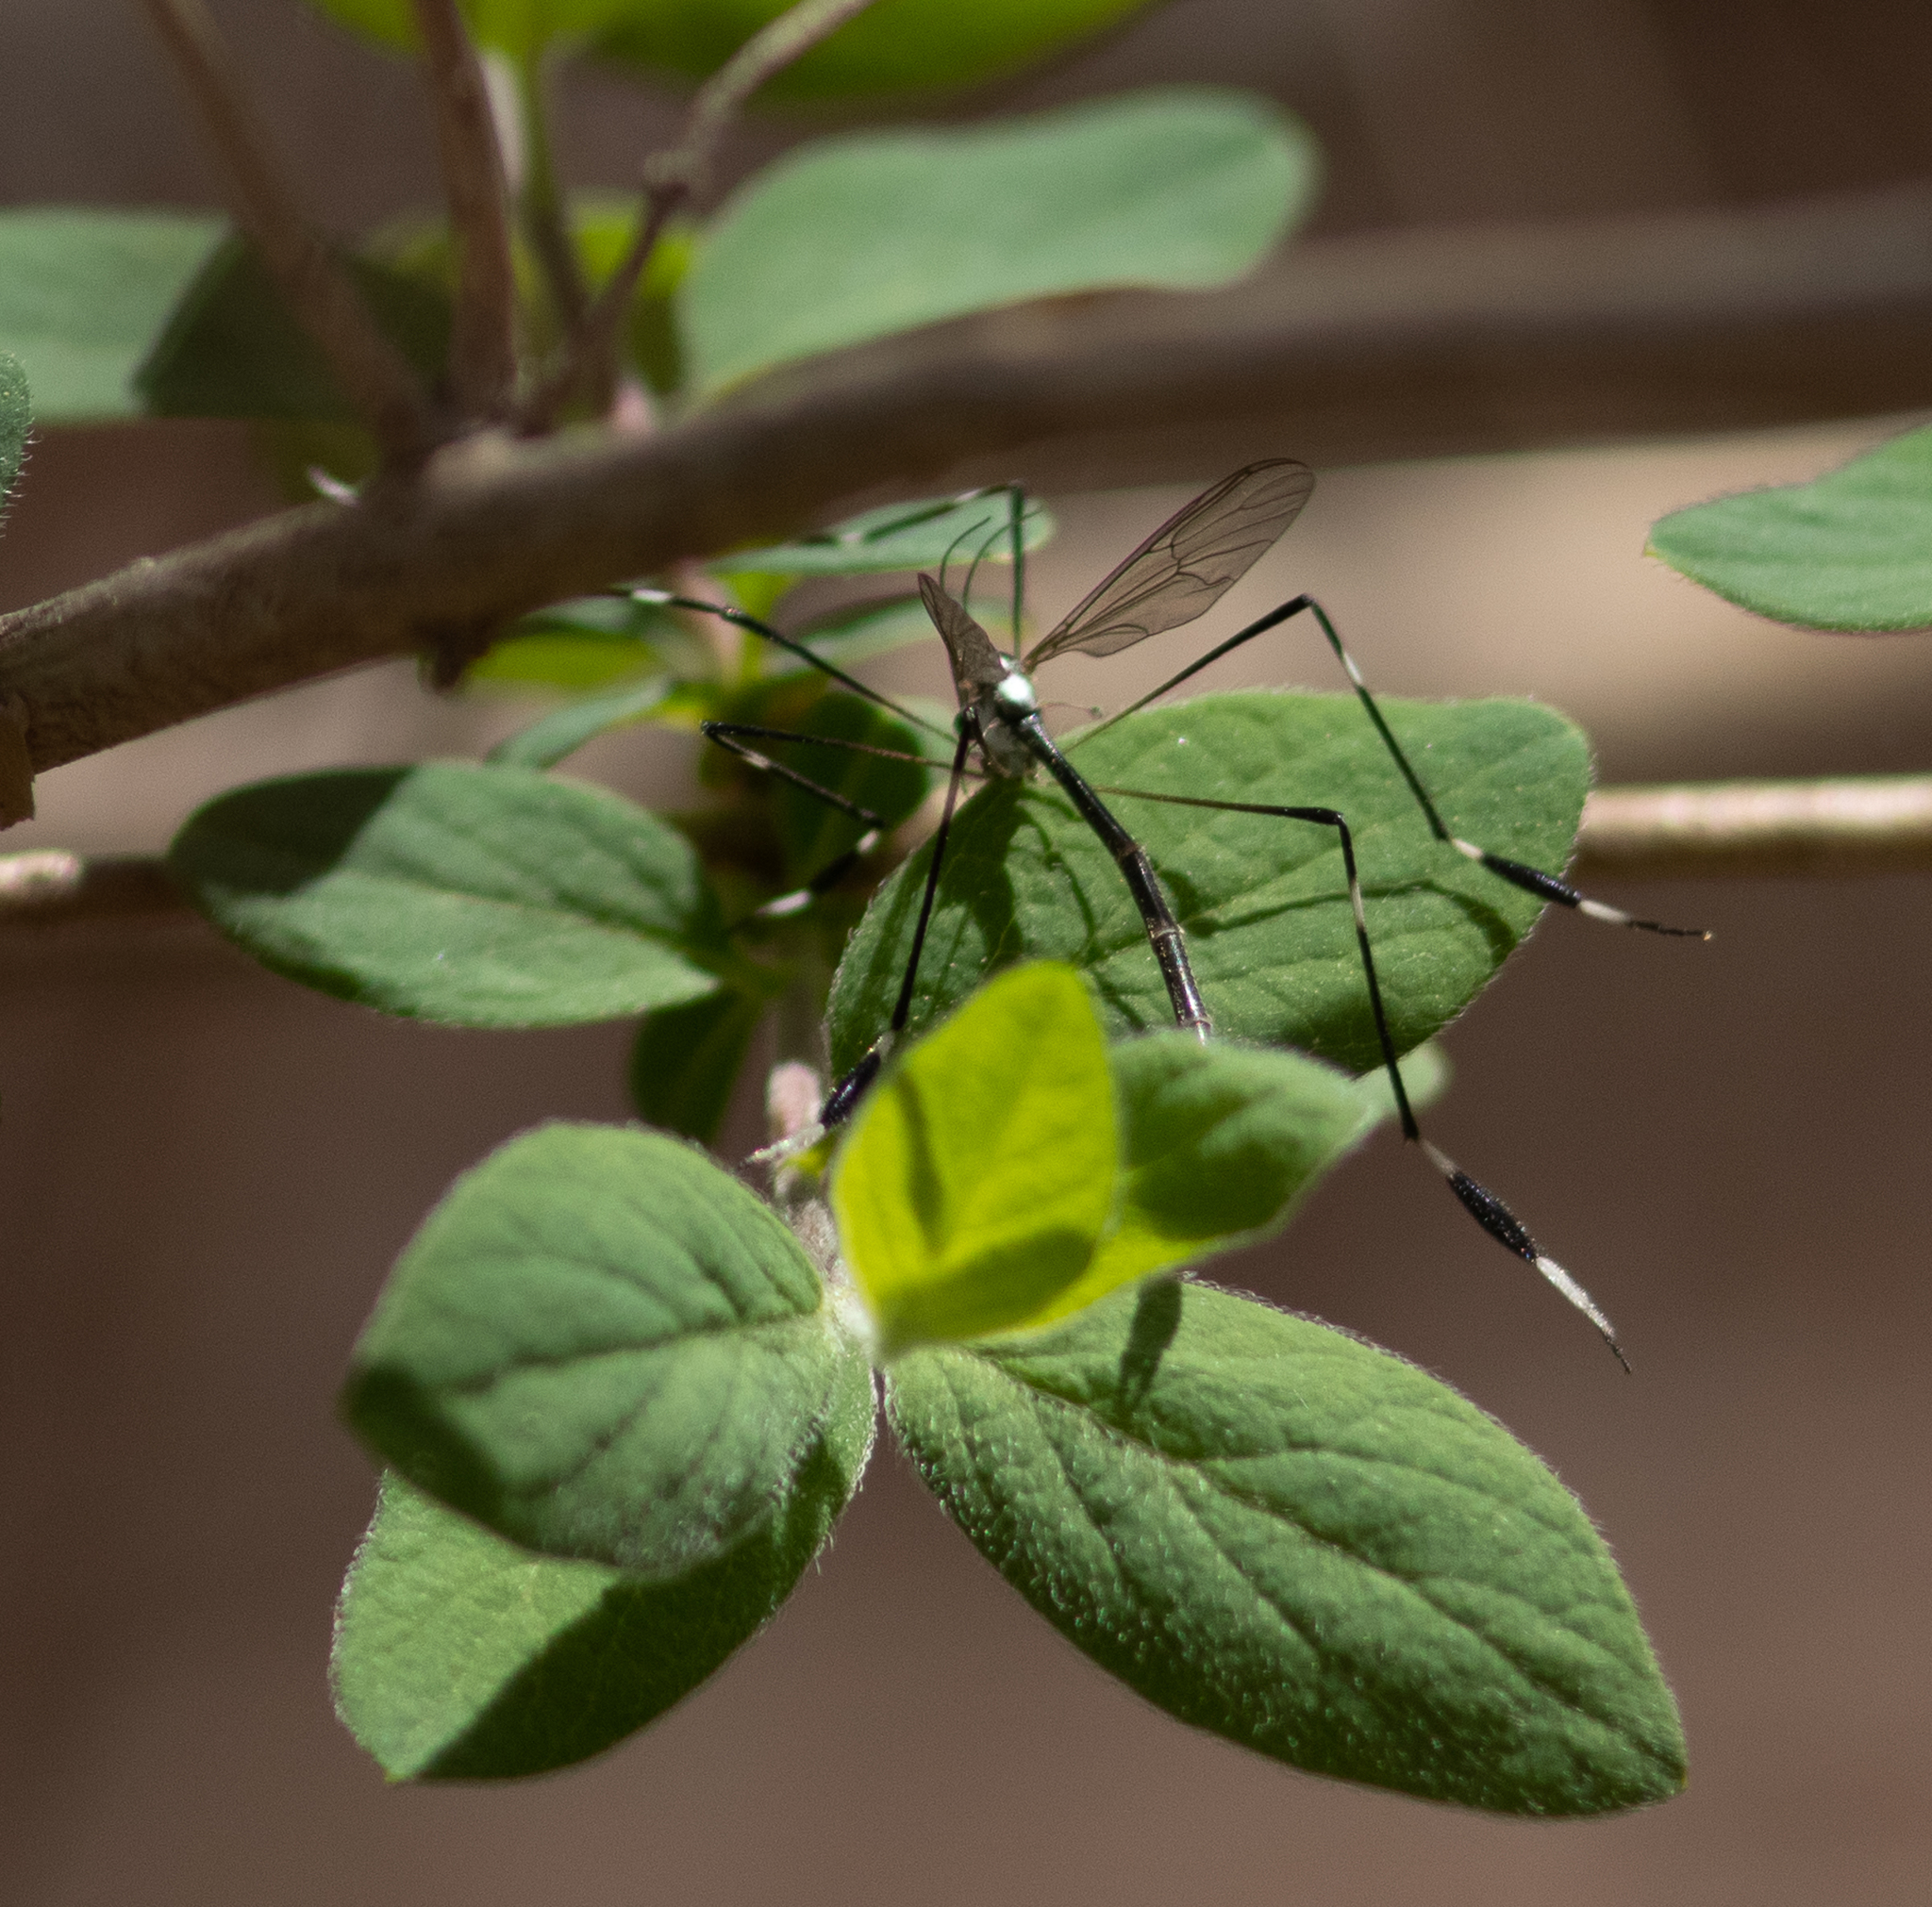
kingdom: Animalia
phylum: Arthropoda
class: Insecta
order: Diptera
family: Ptychopteridae
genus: Bittacomorpha
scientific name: Bittacomorpha clavipes
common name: Eastern phantom crane fly
